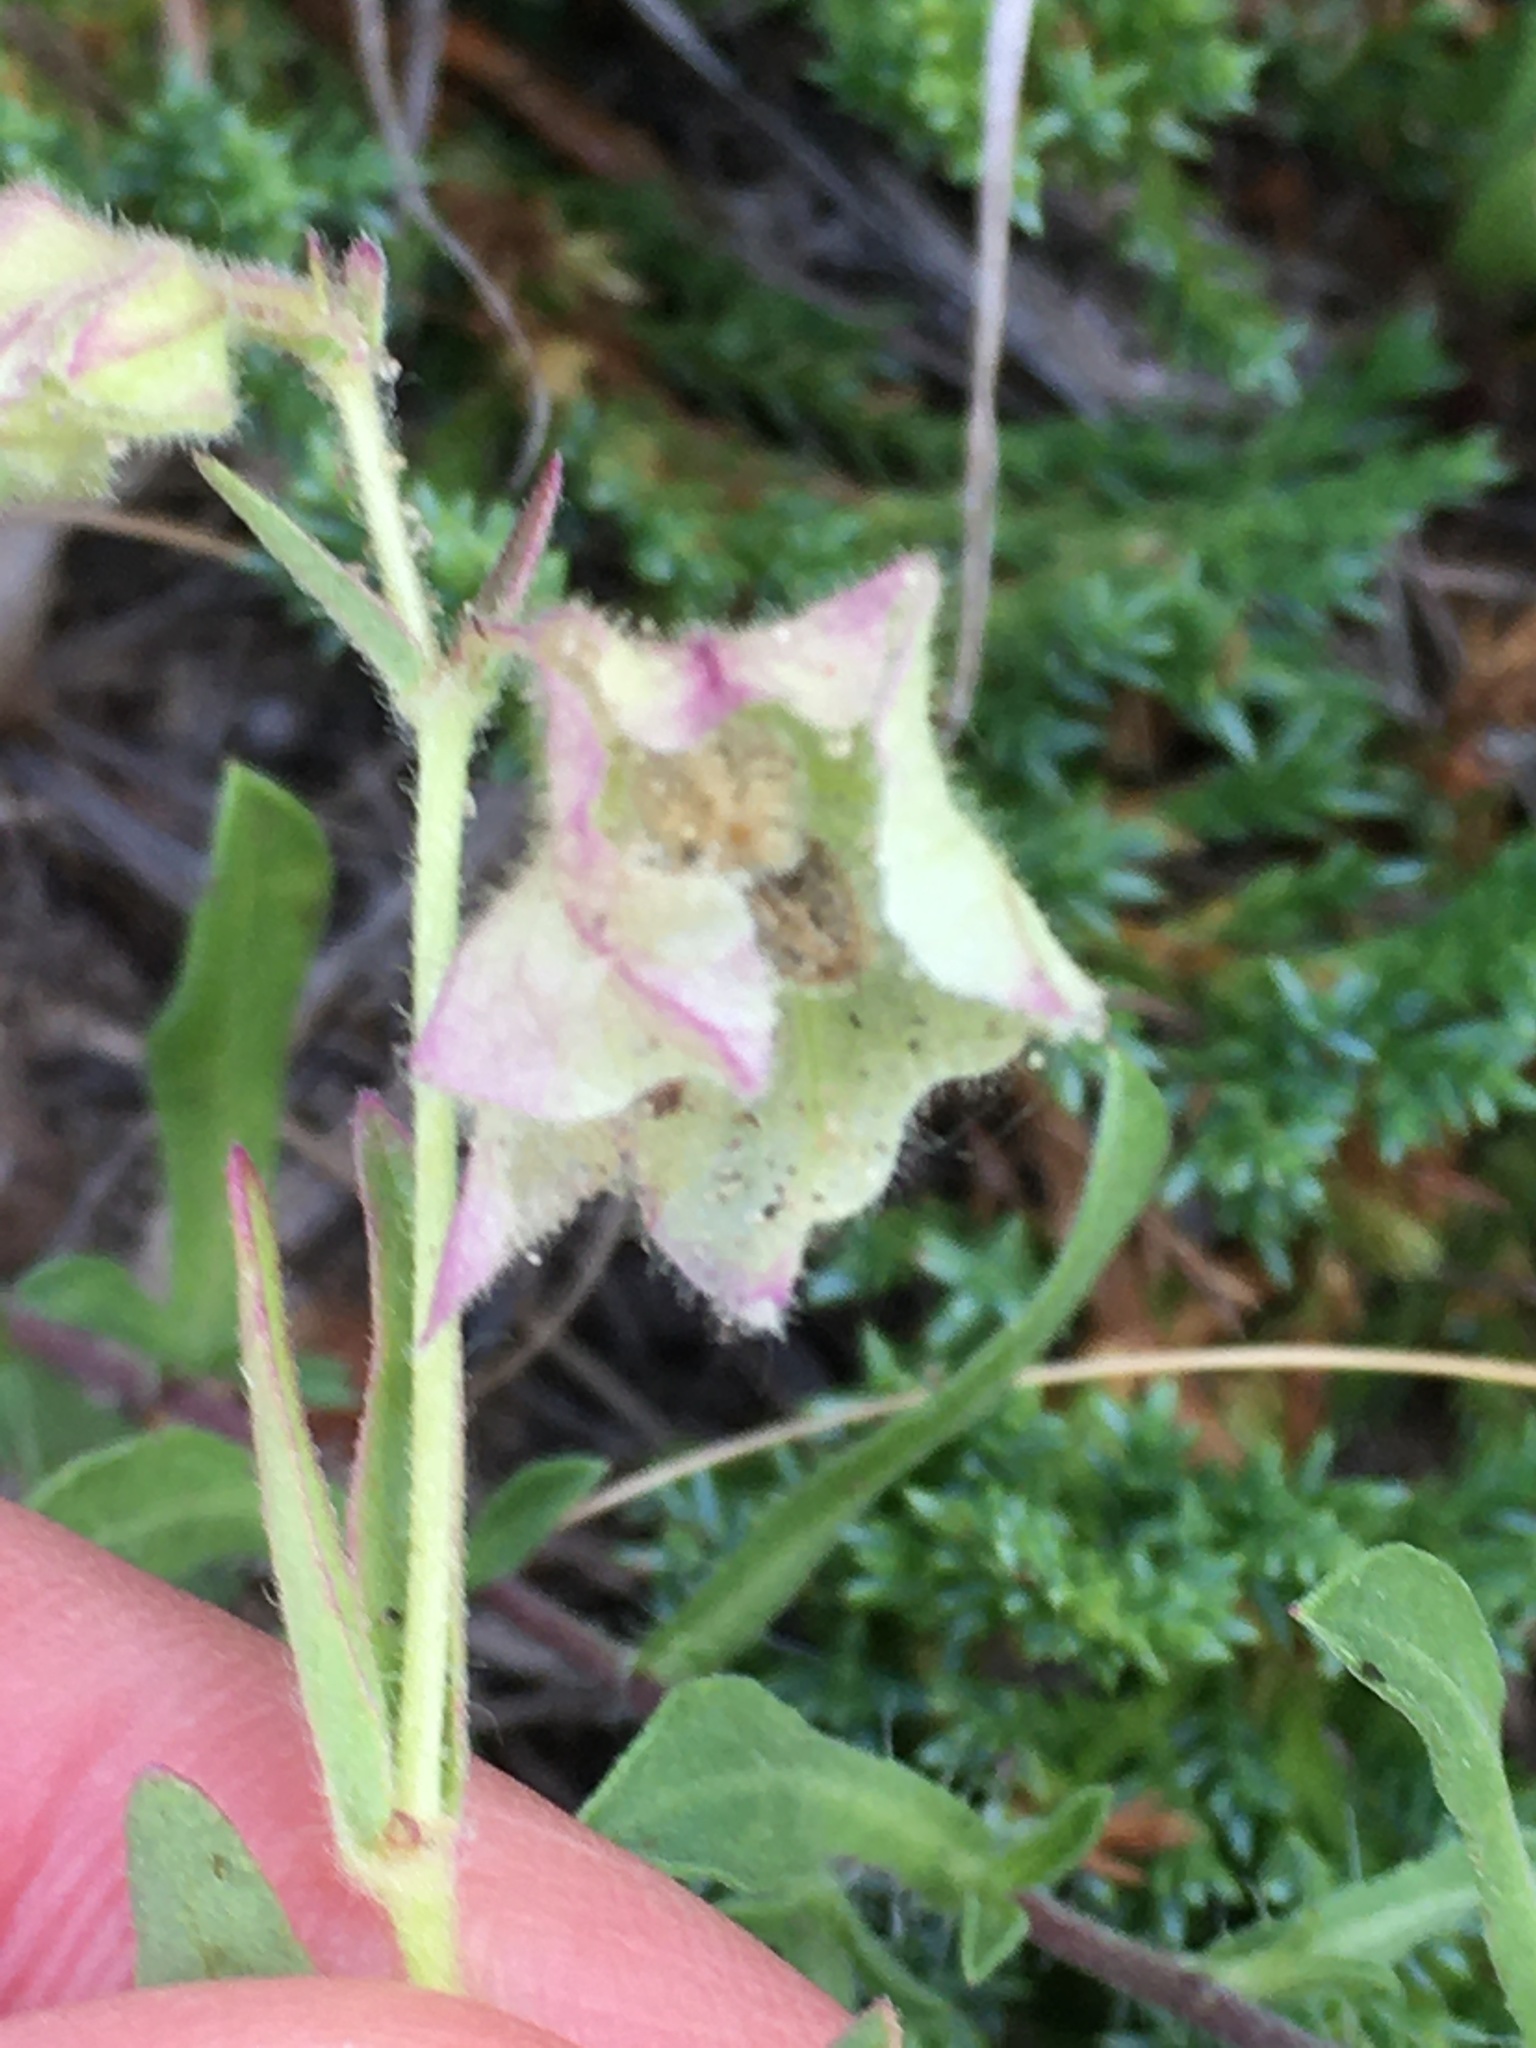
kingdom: Plantae
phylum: Tracheophyta
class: Magnoliopsida
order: Caryophyllales
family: Nyctaginaceae
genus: Mirabilis
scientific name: Mirabilis albida
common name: Hairy four-o'clock
